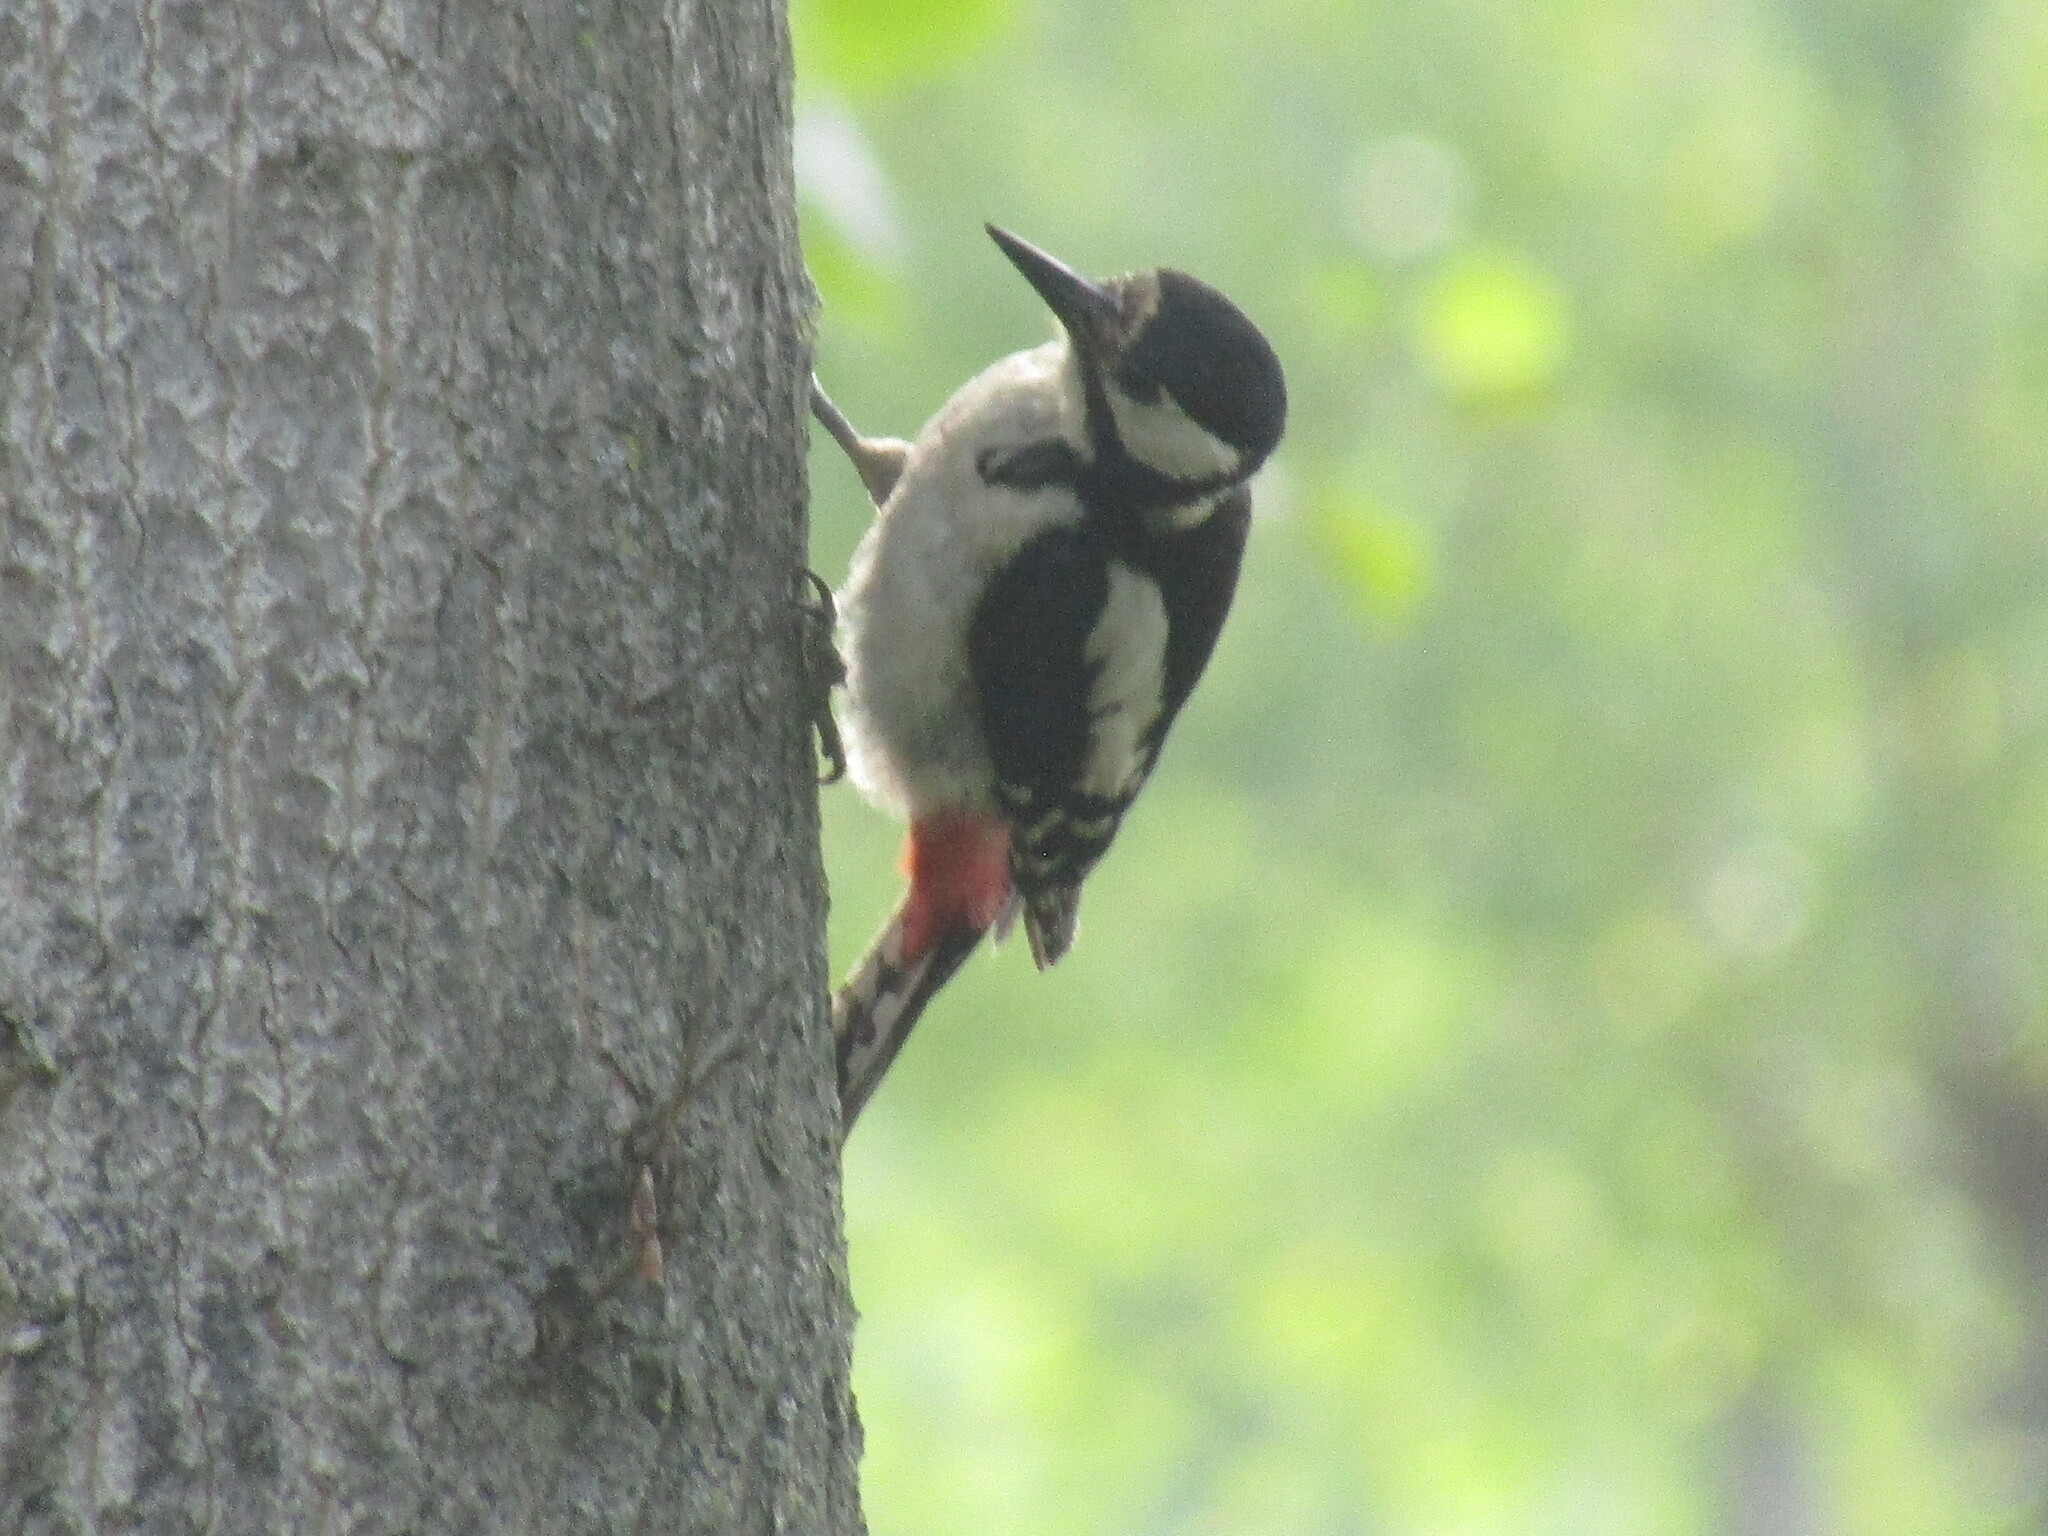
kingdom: Animalia
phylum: Chordata
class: Aves
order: Piciformes
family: Picidae
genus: Dendrocopos
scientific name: Dendrocopos major
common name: Great spotted woodpecker
